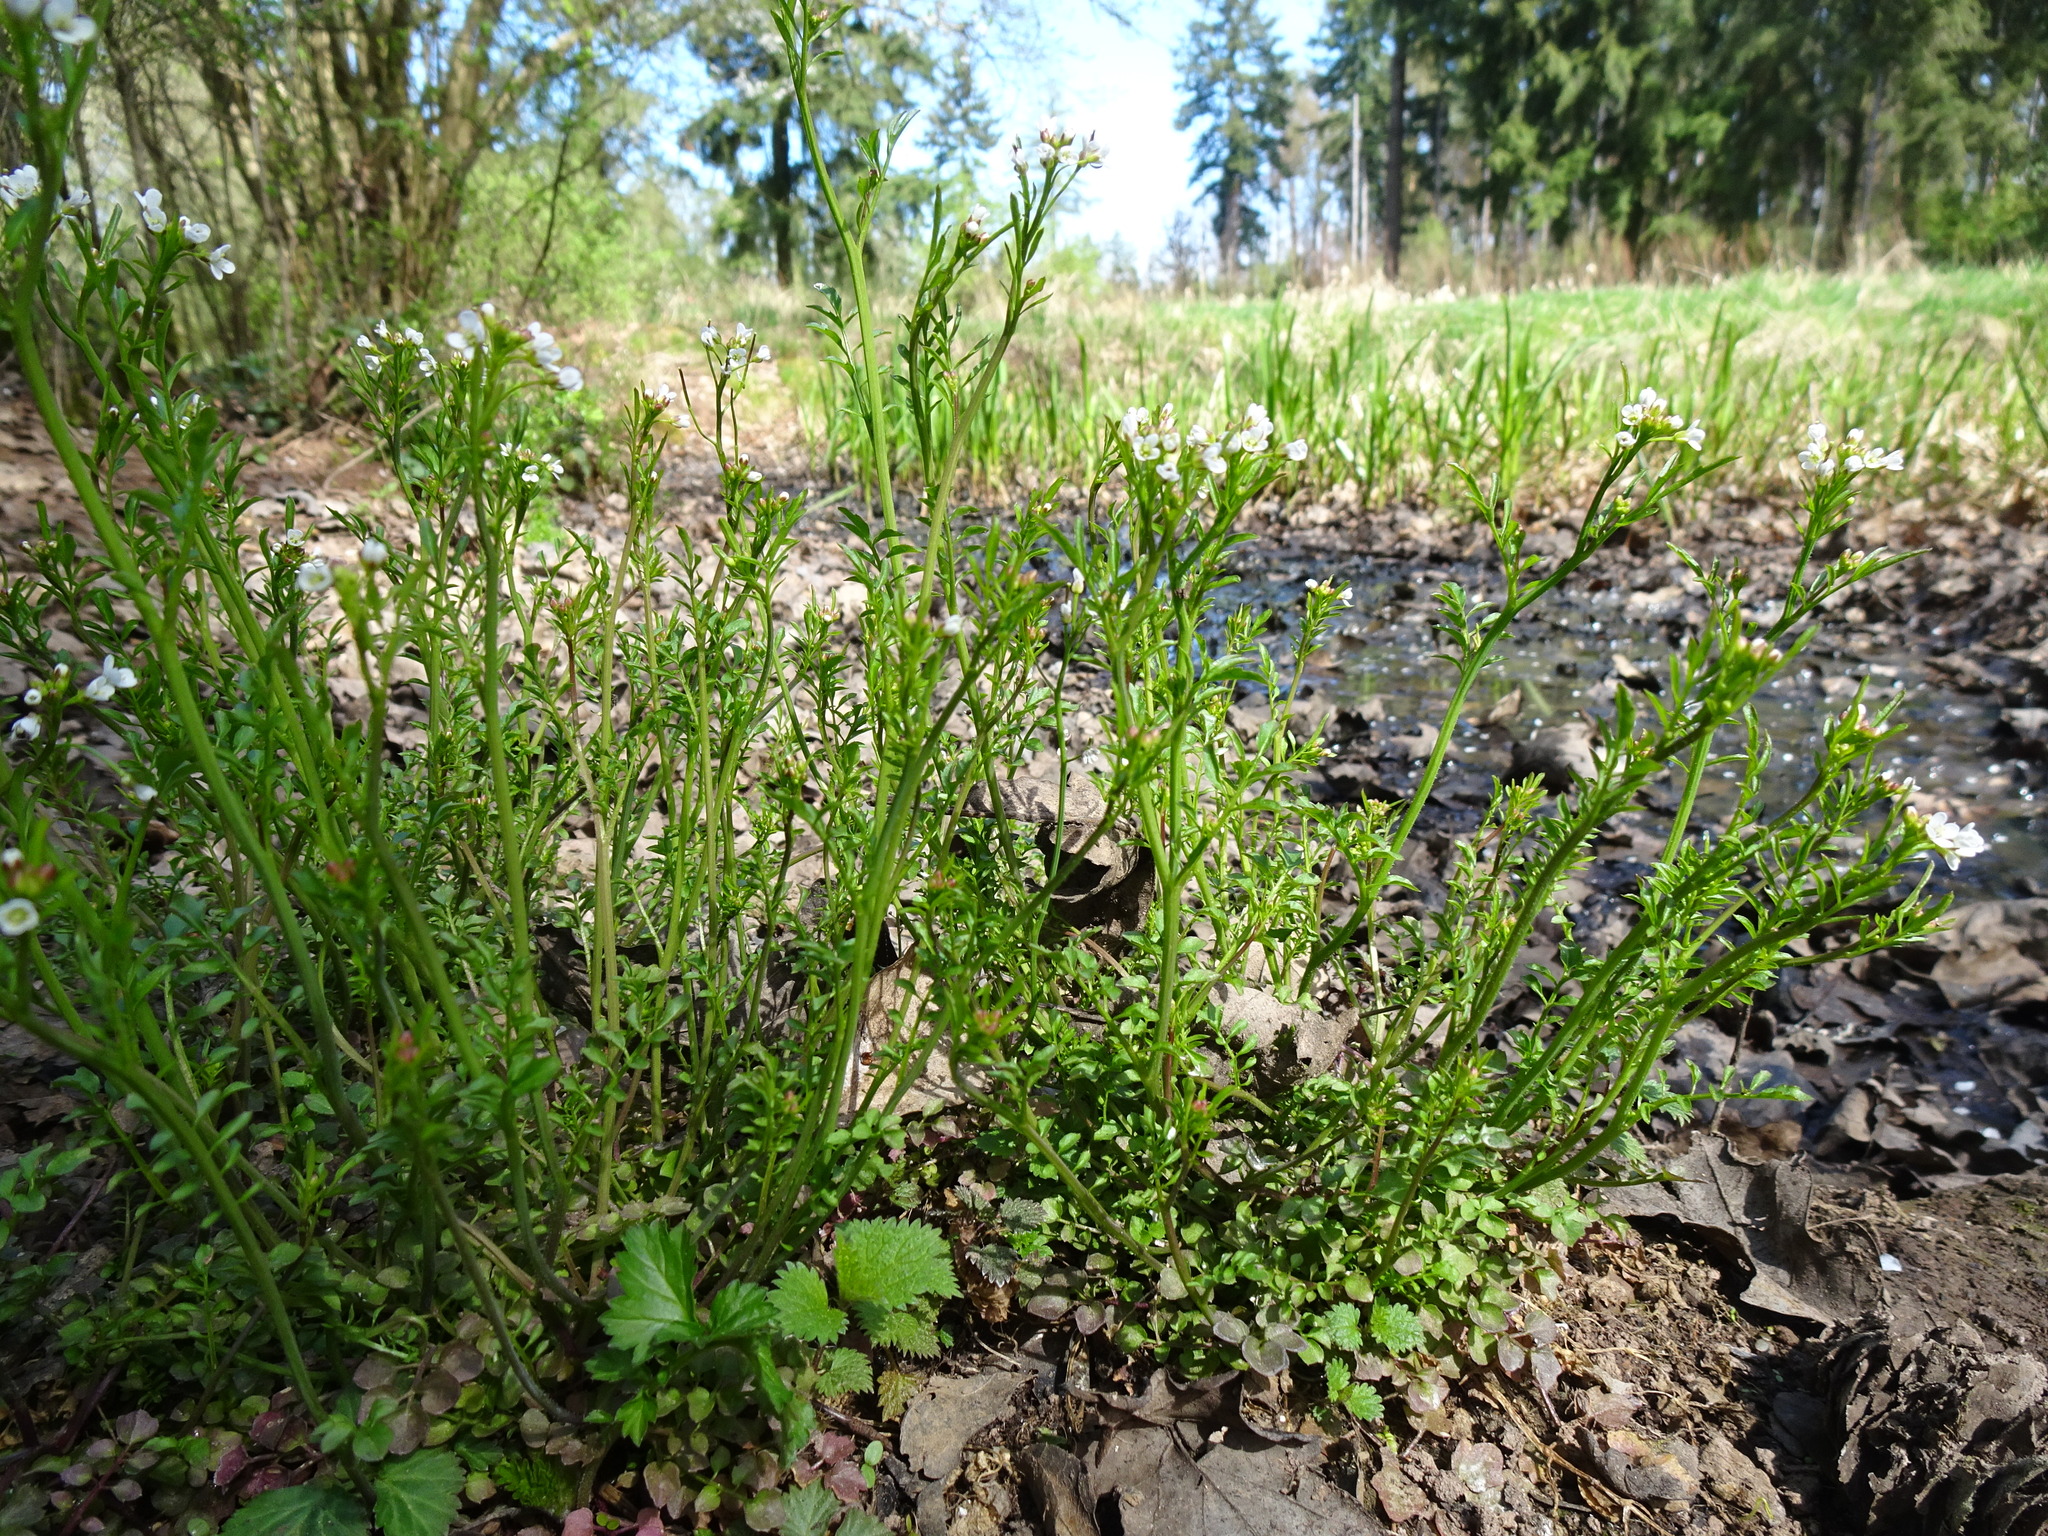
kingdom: Plantae
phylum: Tracheophyta
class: Magnoliopsida
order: Brassicales
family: Brassicaceae
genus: Cardamine
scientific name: Cardamine flexuosa
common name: Woodland bittercress
